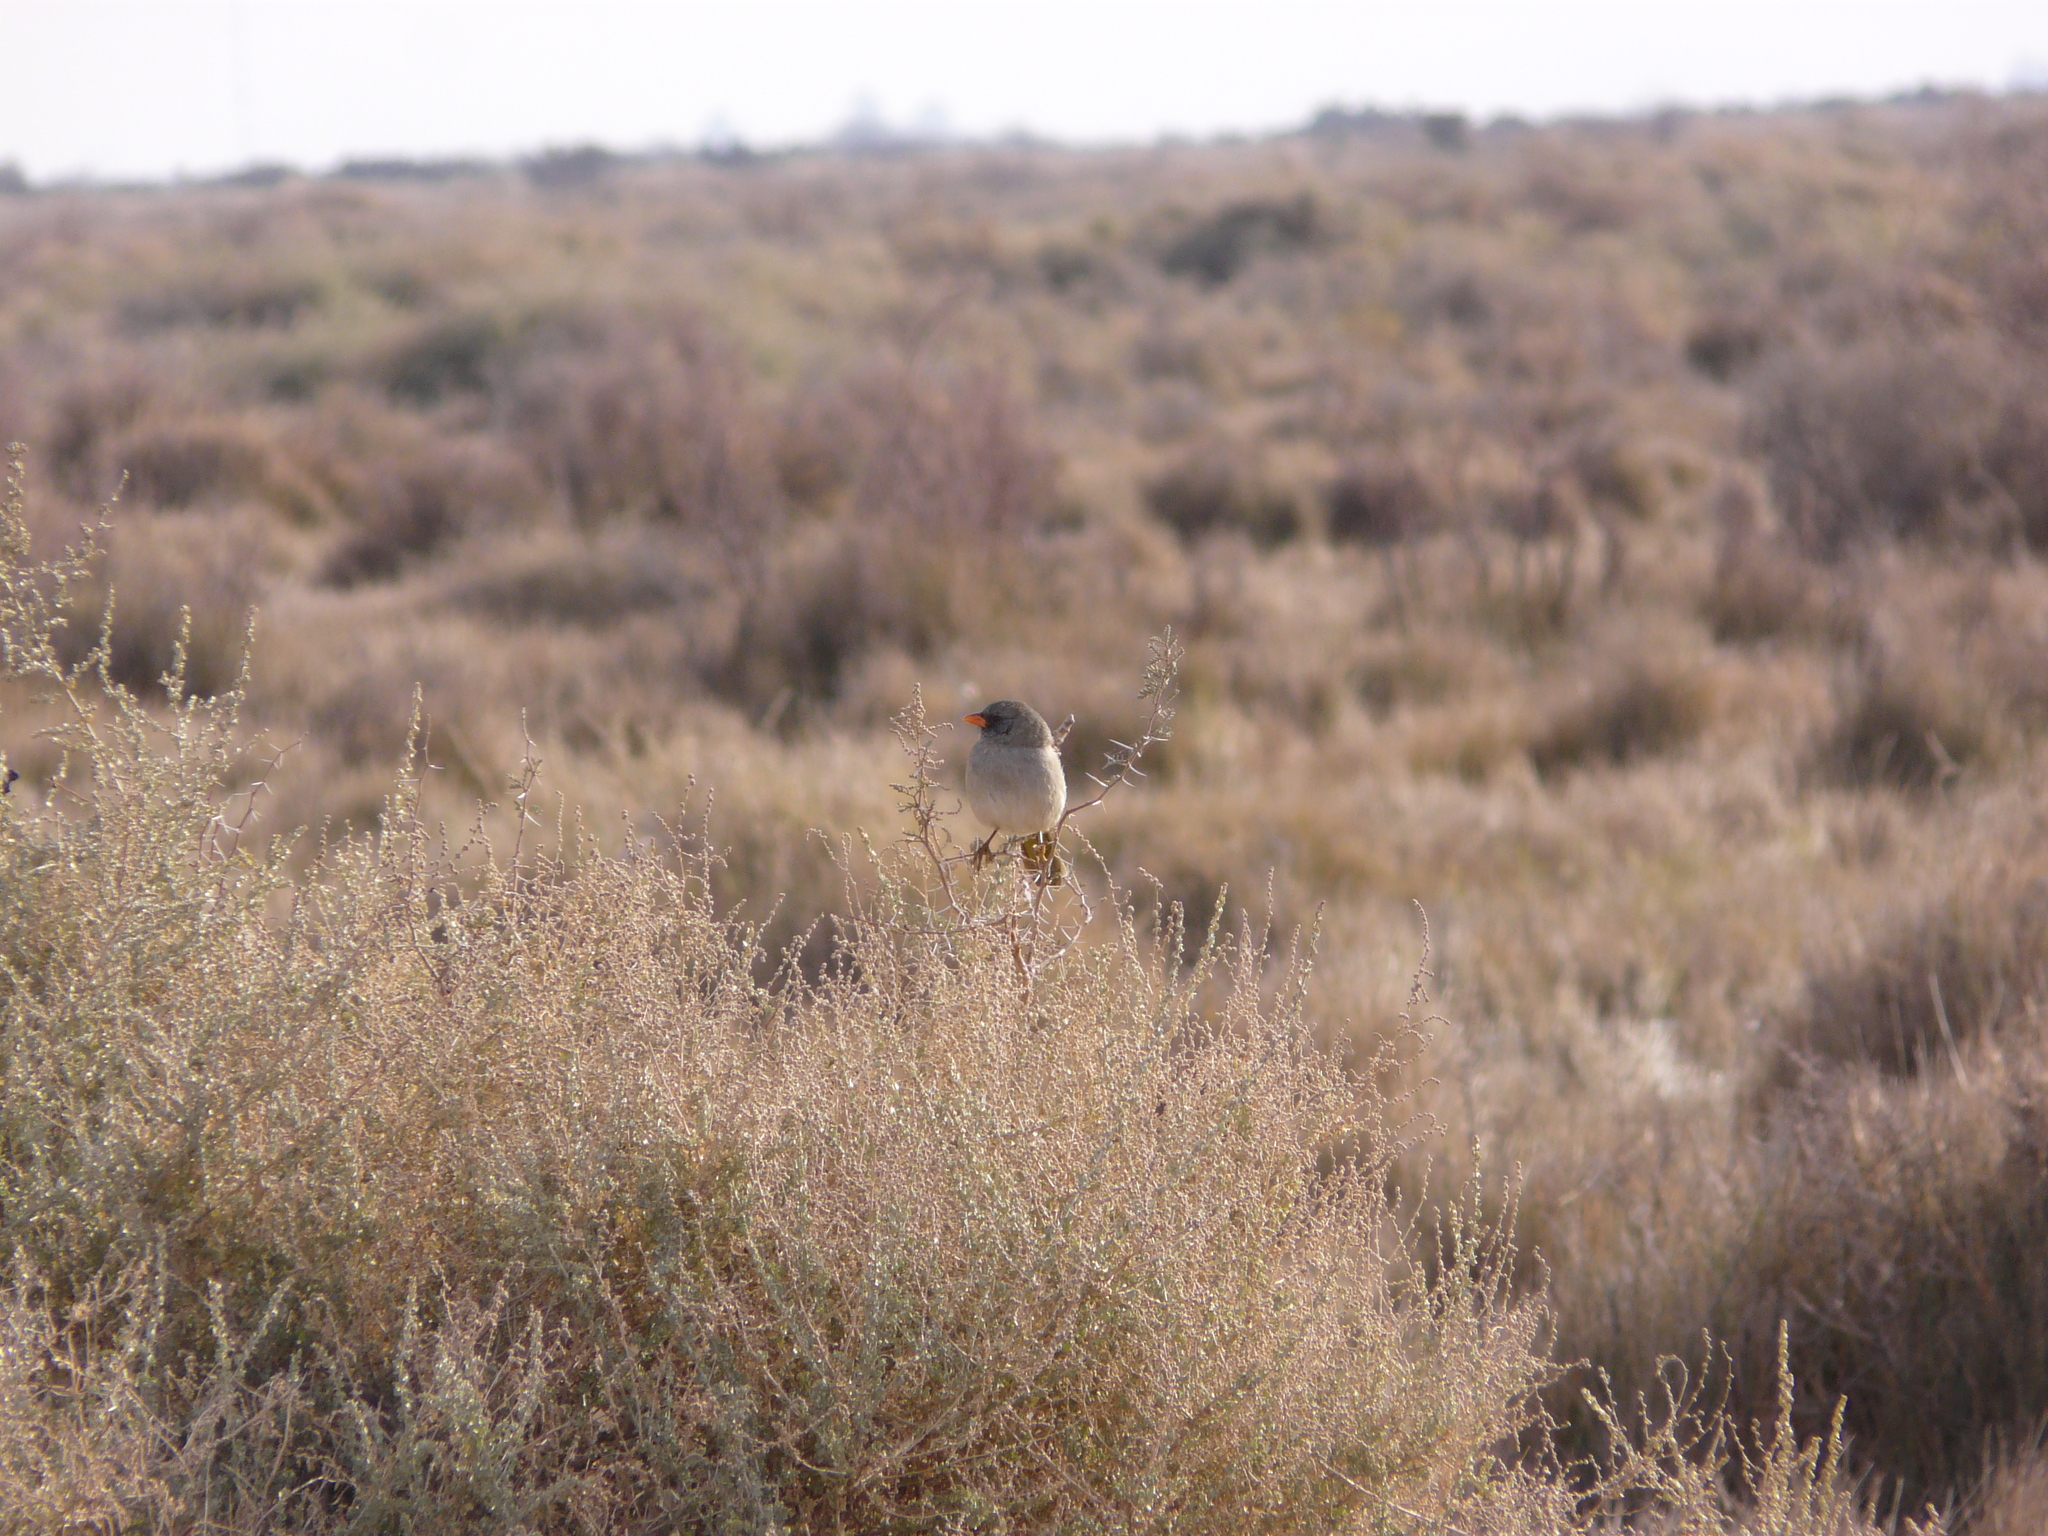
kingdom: Animalia
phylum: Chordata
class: Aves
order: Passeriformes
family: Thraupidae
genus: Embernagra
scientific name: Embernagra platensis
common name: Pampa finch
